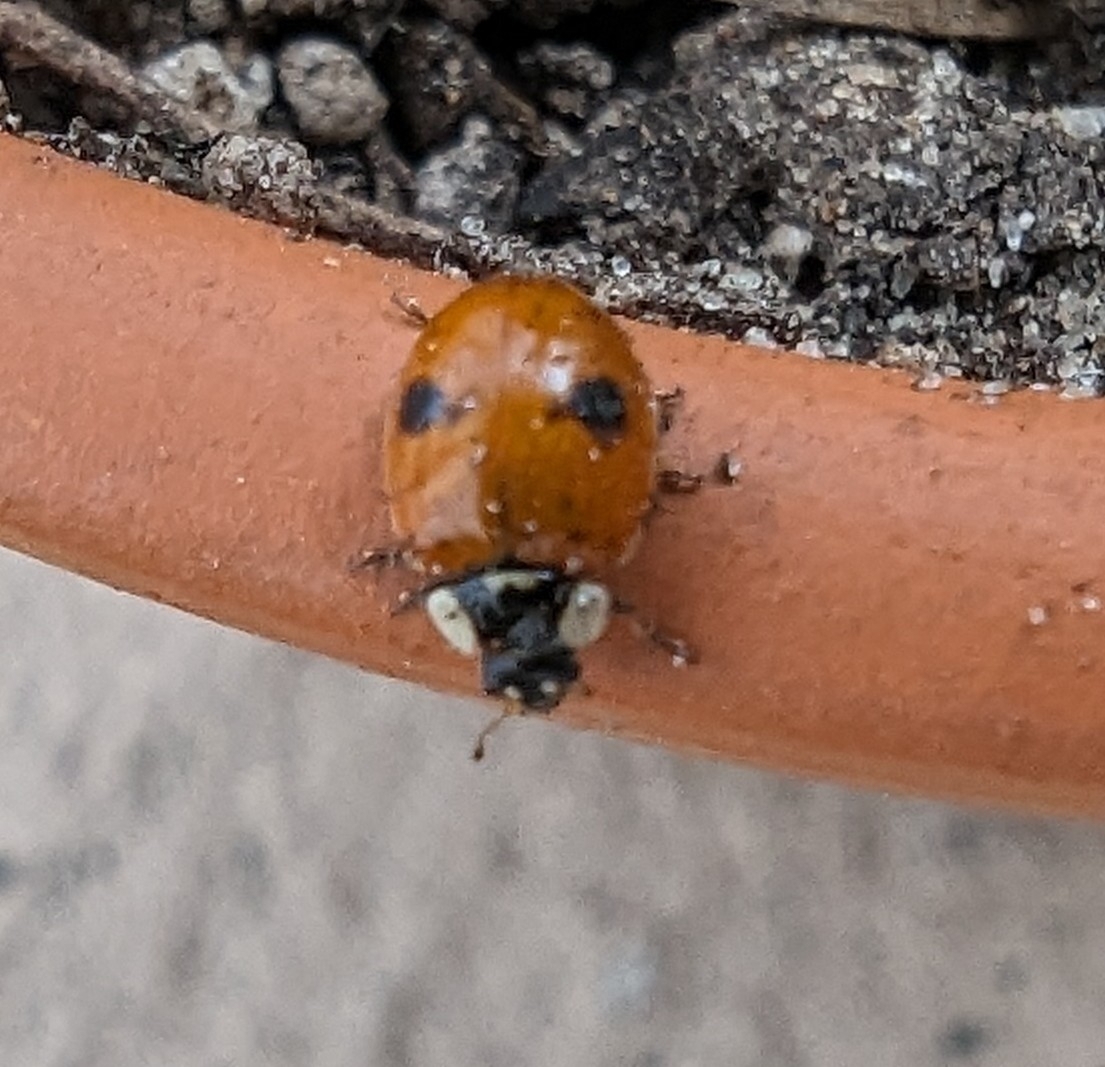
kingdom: Animalia
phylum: Arthropoda
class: Insecta
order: Coleoptera
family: Coccinellidae
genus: Adalia
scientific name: Adalia bipunctata
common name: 2-spot ladybird
